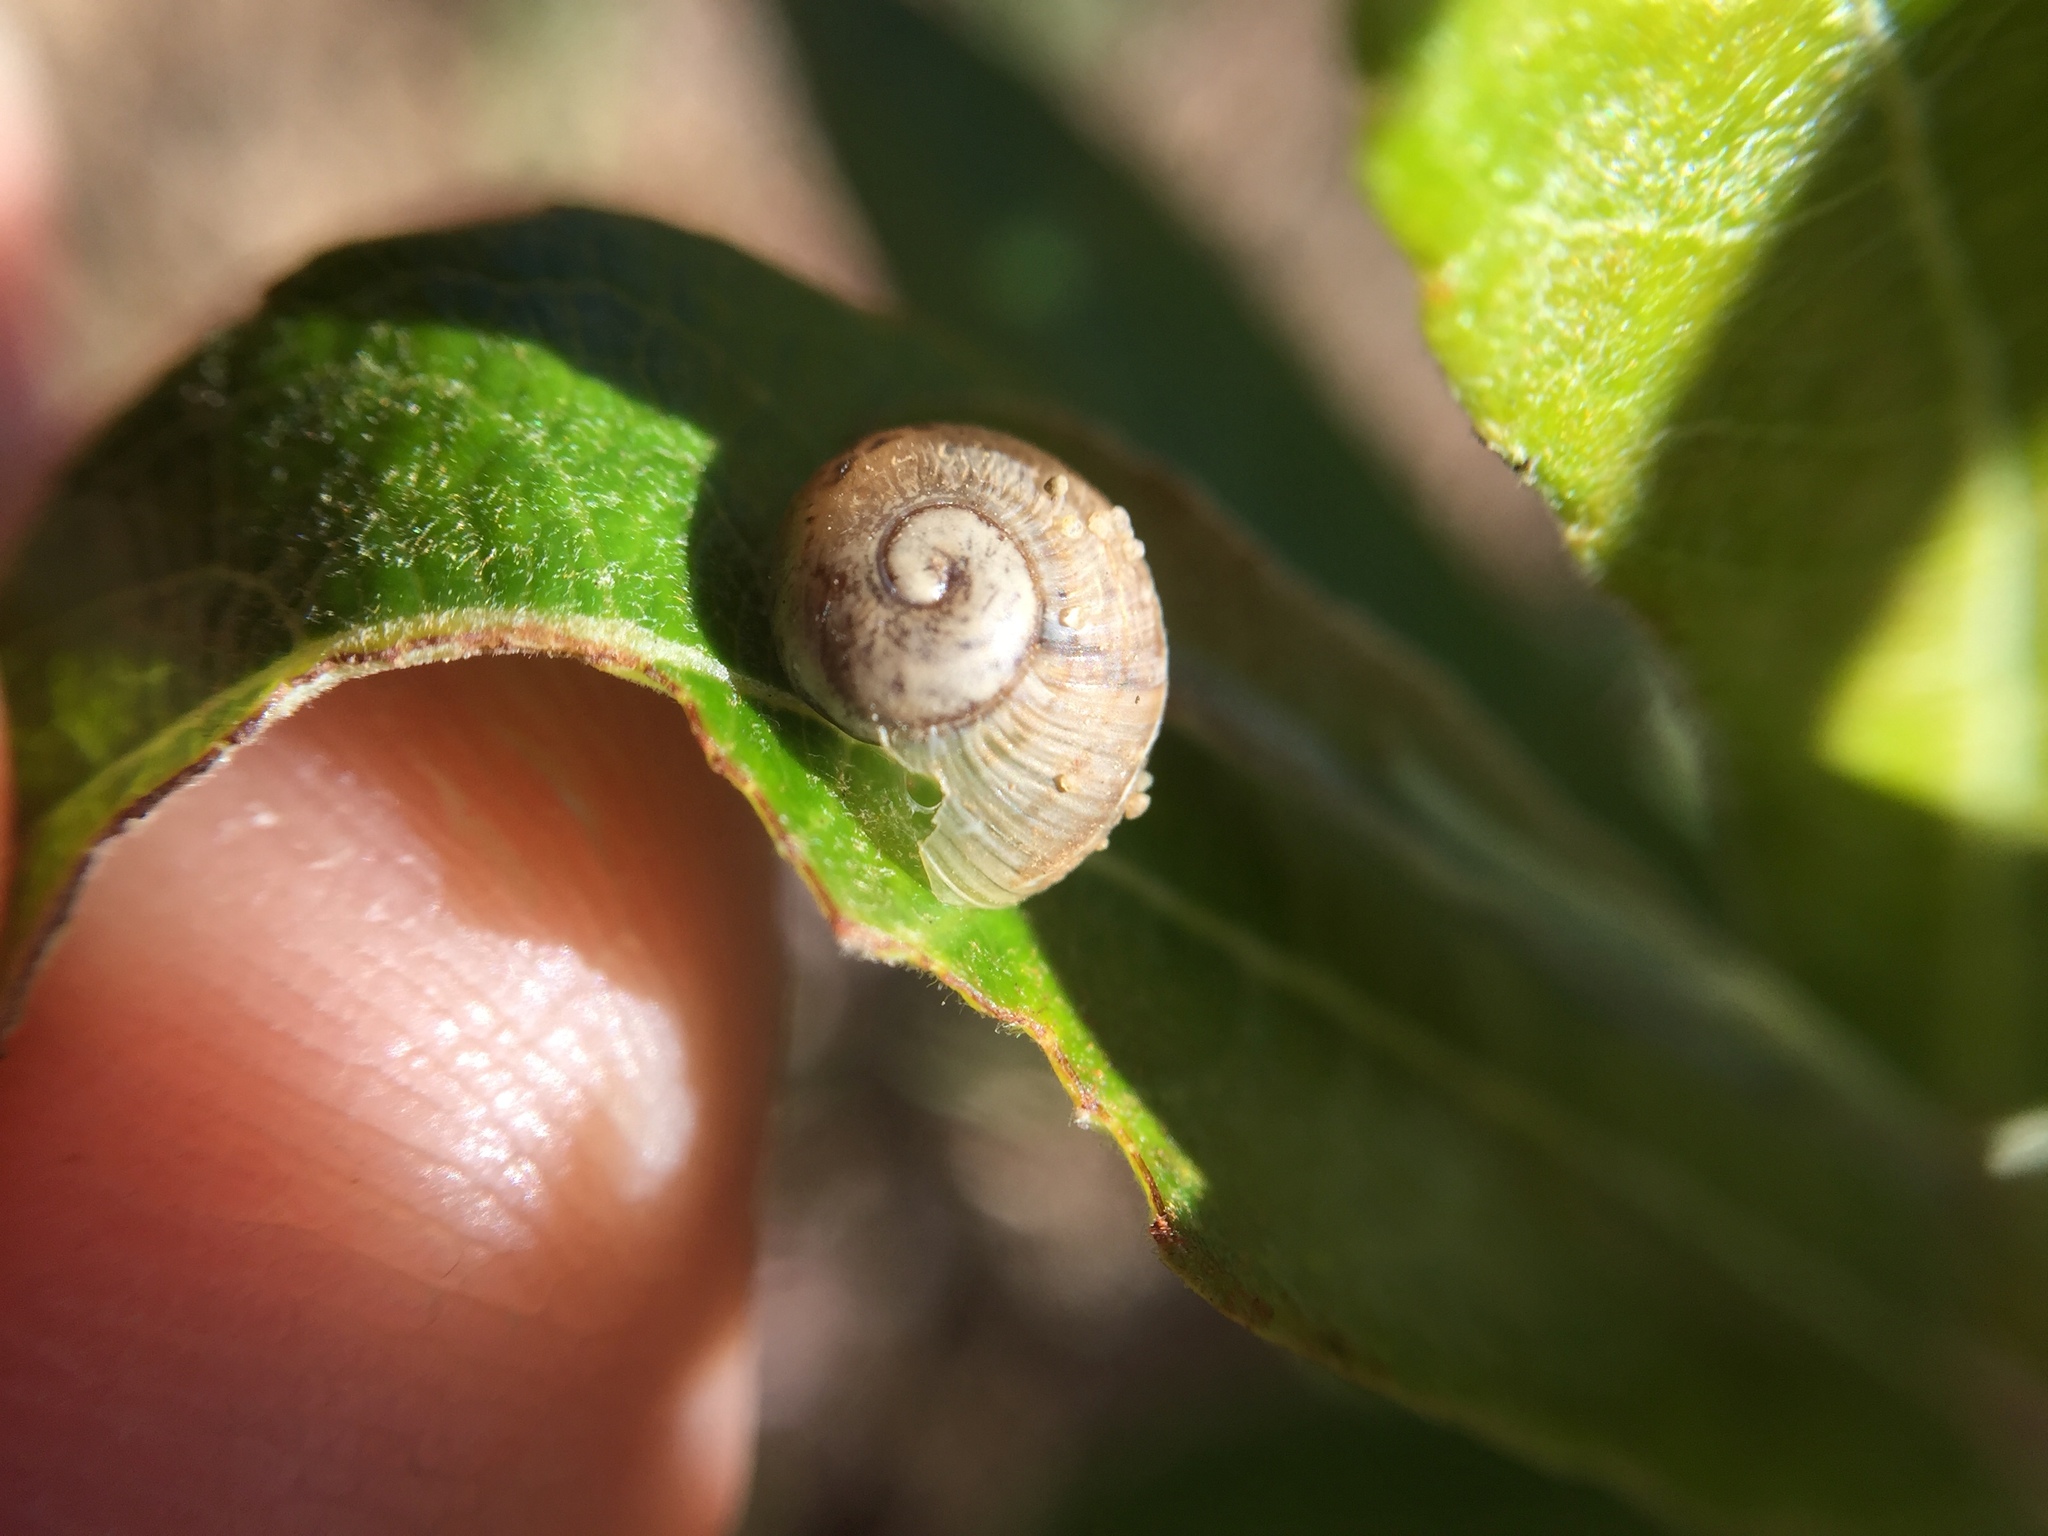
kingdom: Animalia
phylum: Mollusca
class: Gastropoda
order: Stylommatophora
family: Helicidae
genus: Cornu
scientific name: Cornu aspersum
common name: Brown garden snail
